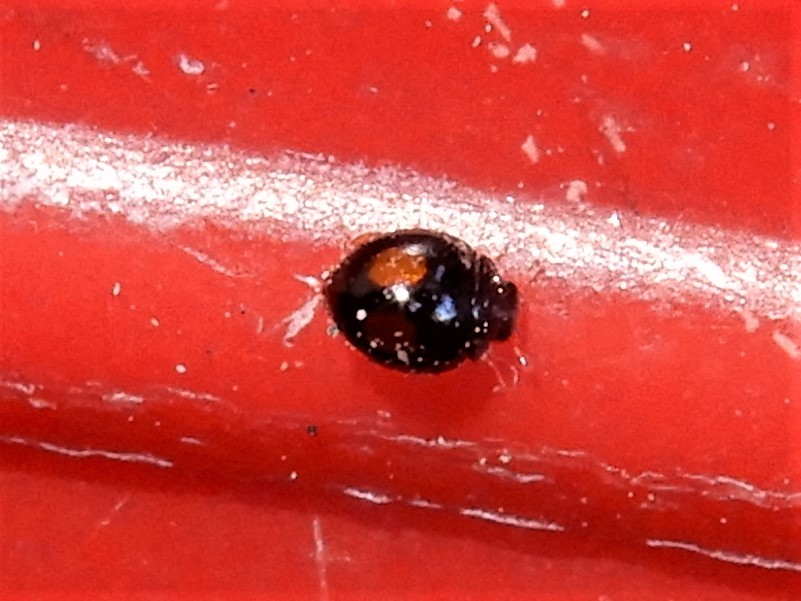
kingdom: Animalia
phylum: Arthropoda
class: Insecta
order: Coleoptera
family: Coccinellidae
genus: Serangium
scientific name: Serangium maculigerum
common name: Lady beetle
